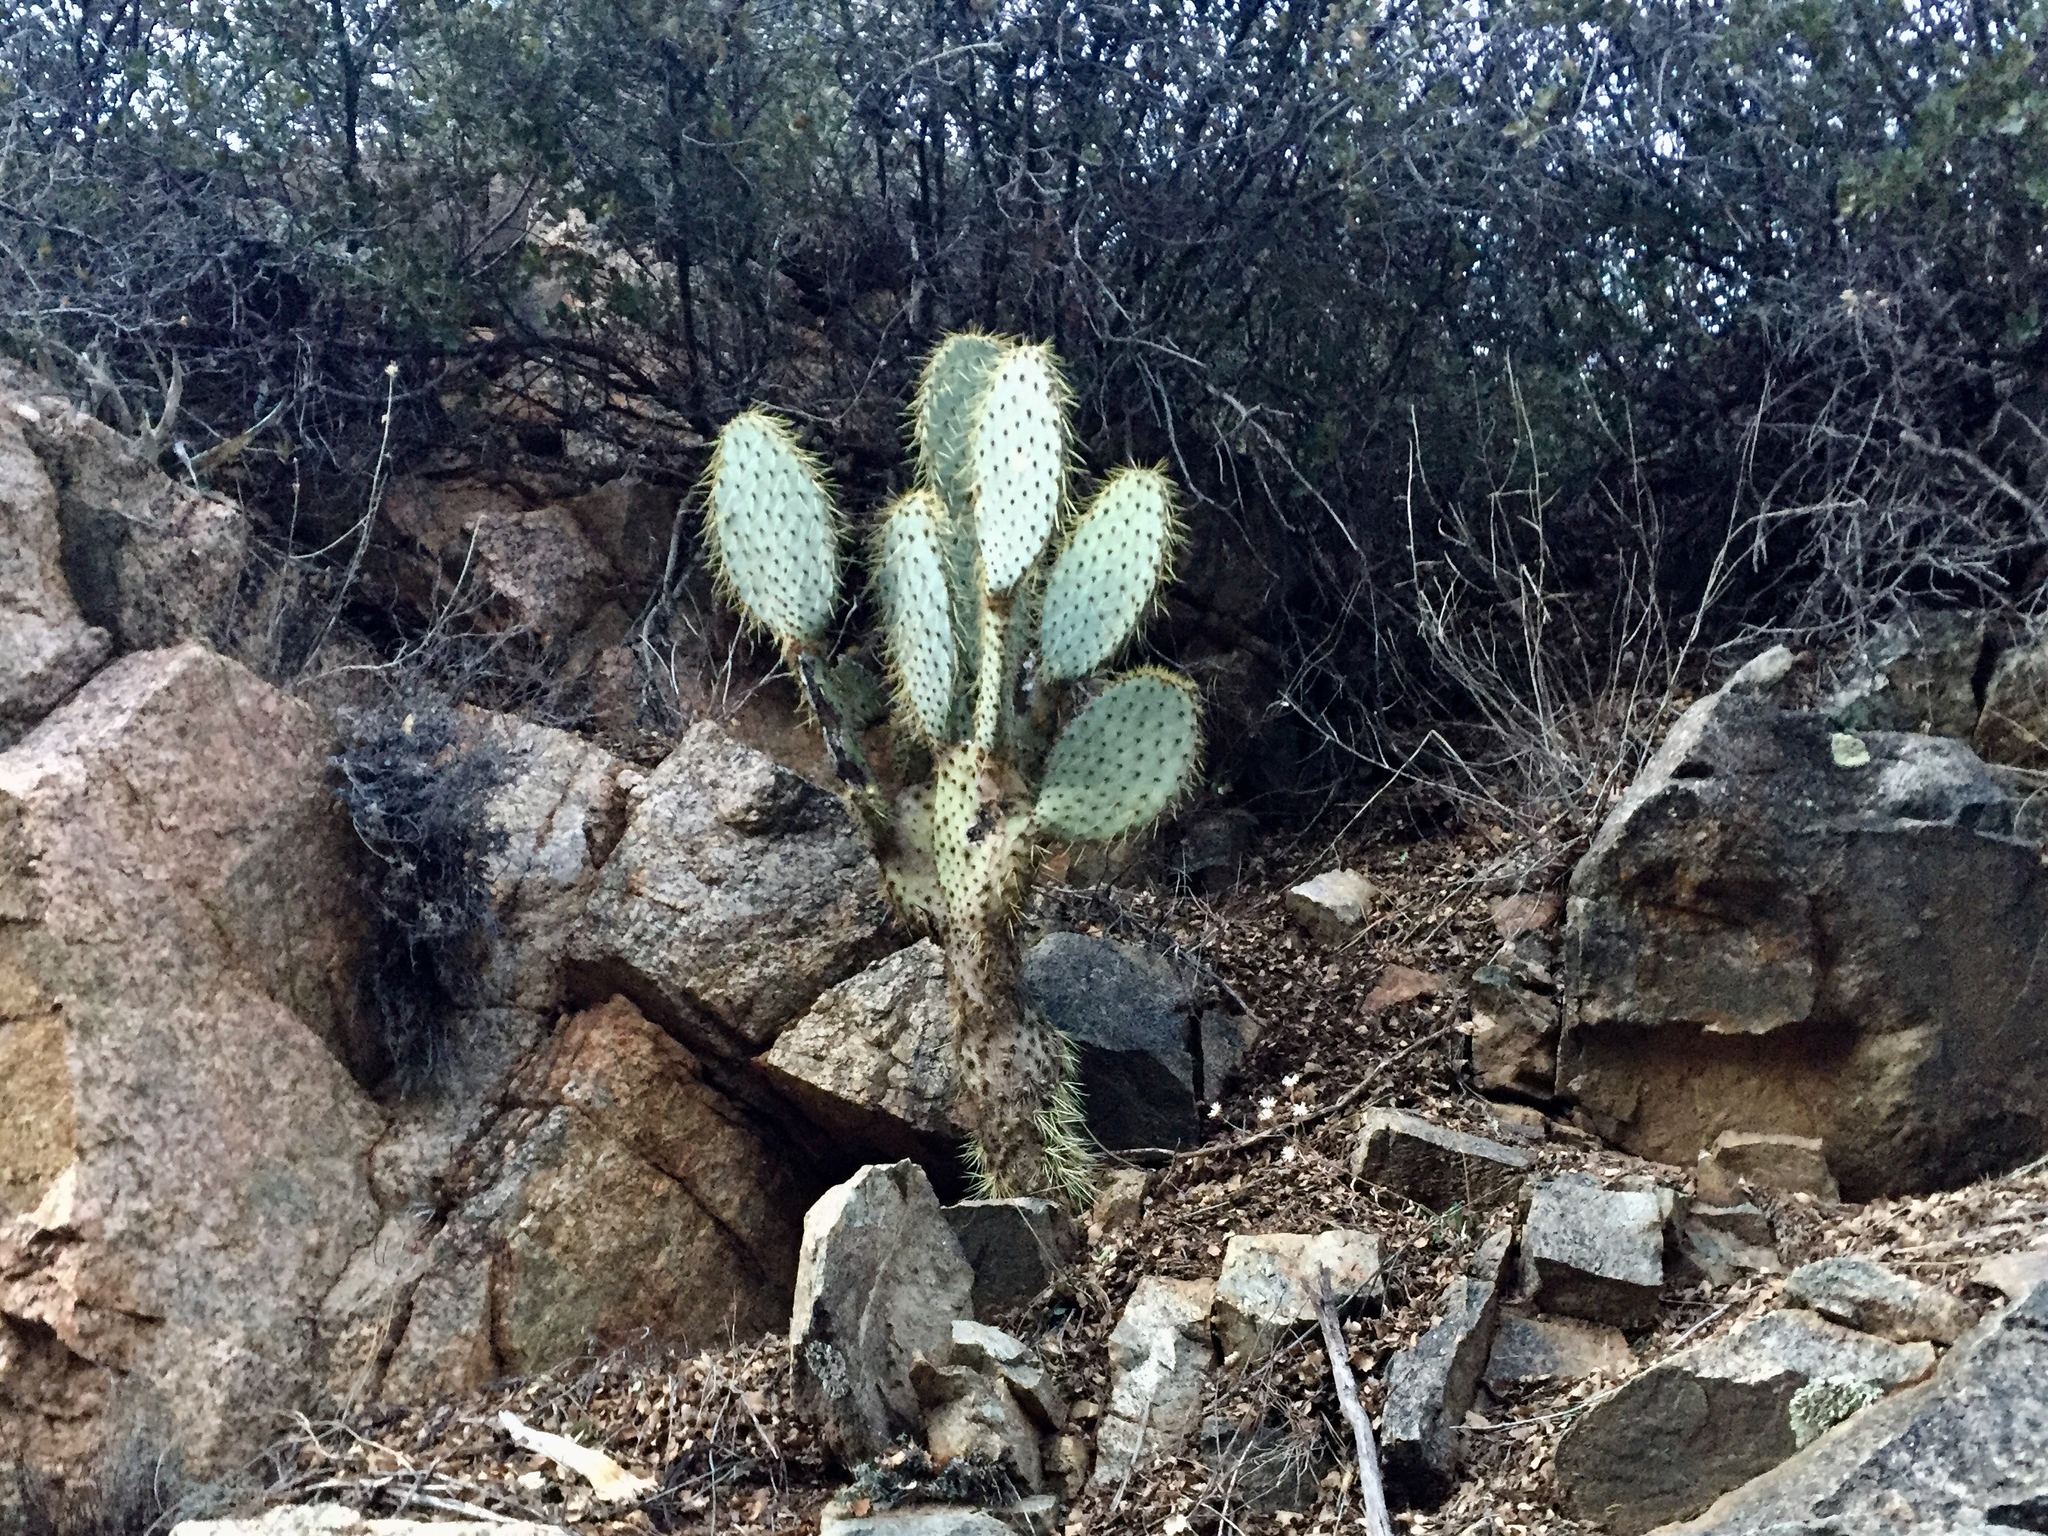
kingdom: Plantae
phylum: Tracheophyta
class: Magnoliopsida
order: Caryophyllales
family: Cactaceae
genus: Opuntia
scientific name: Opuntia chlorotica
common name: Dollar-joint prickly-pear
